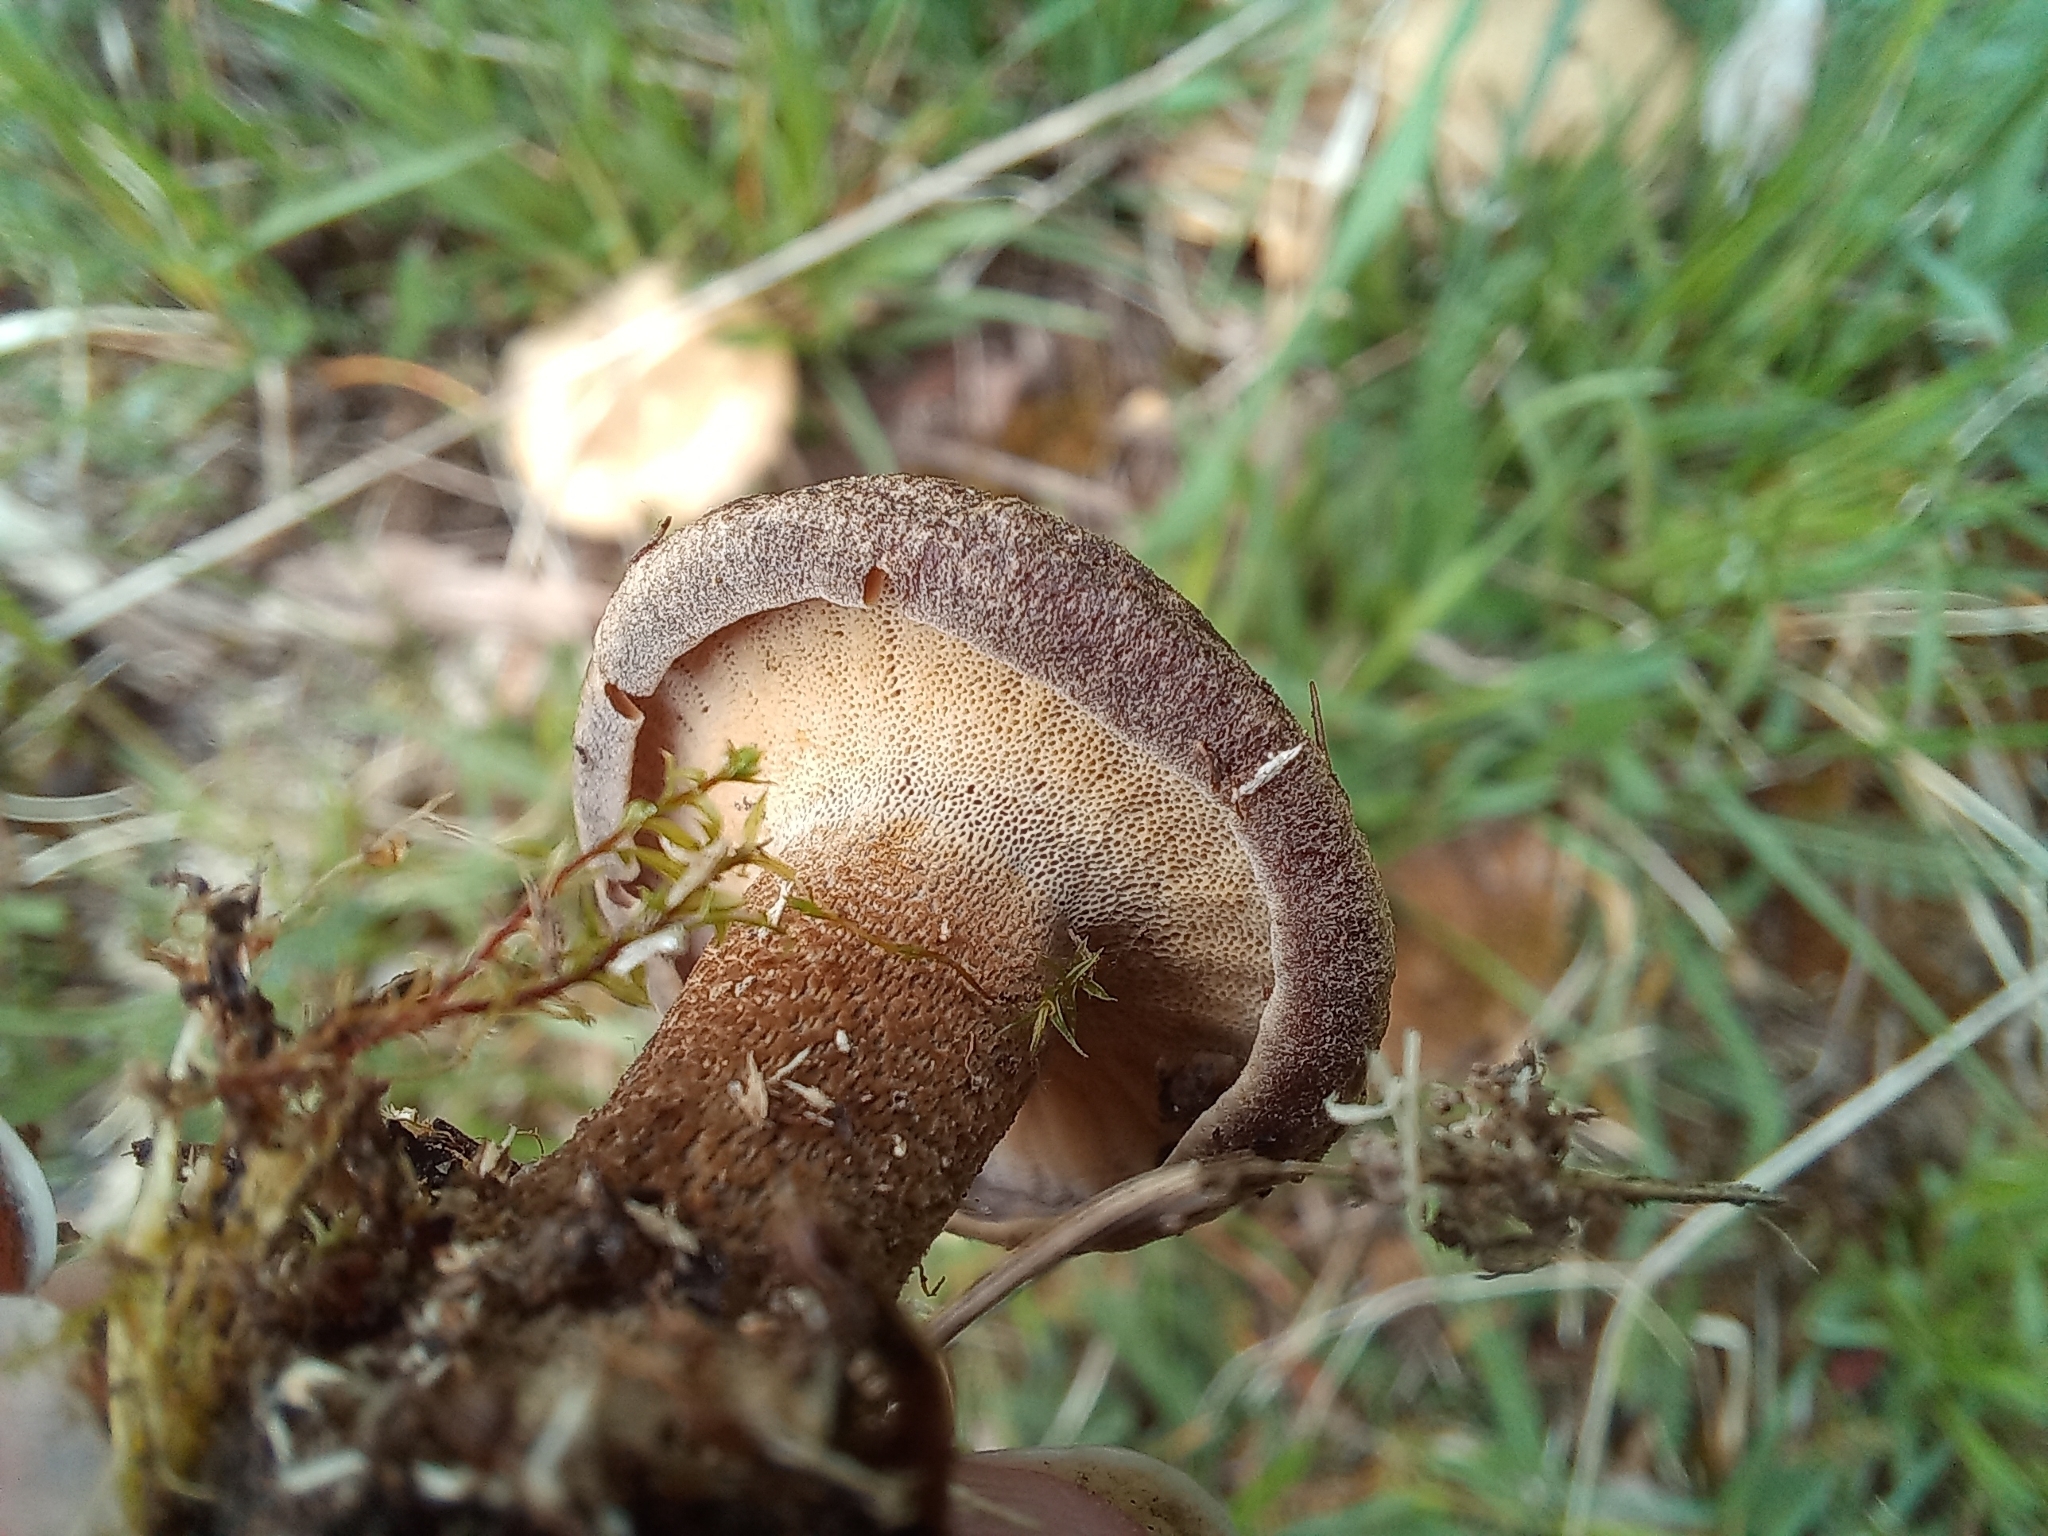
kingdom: Fungi
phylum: Basidiomycota
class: Agaricomycetes
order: Polyporales
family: Polyporaceae
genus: Lentinus
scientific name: Lentinus substrictus
